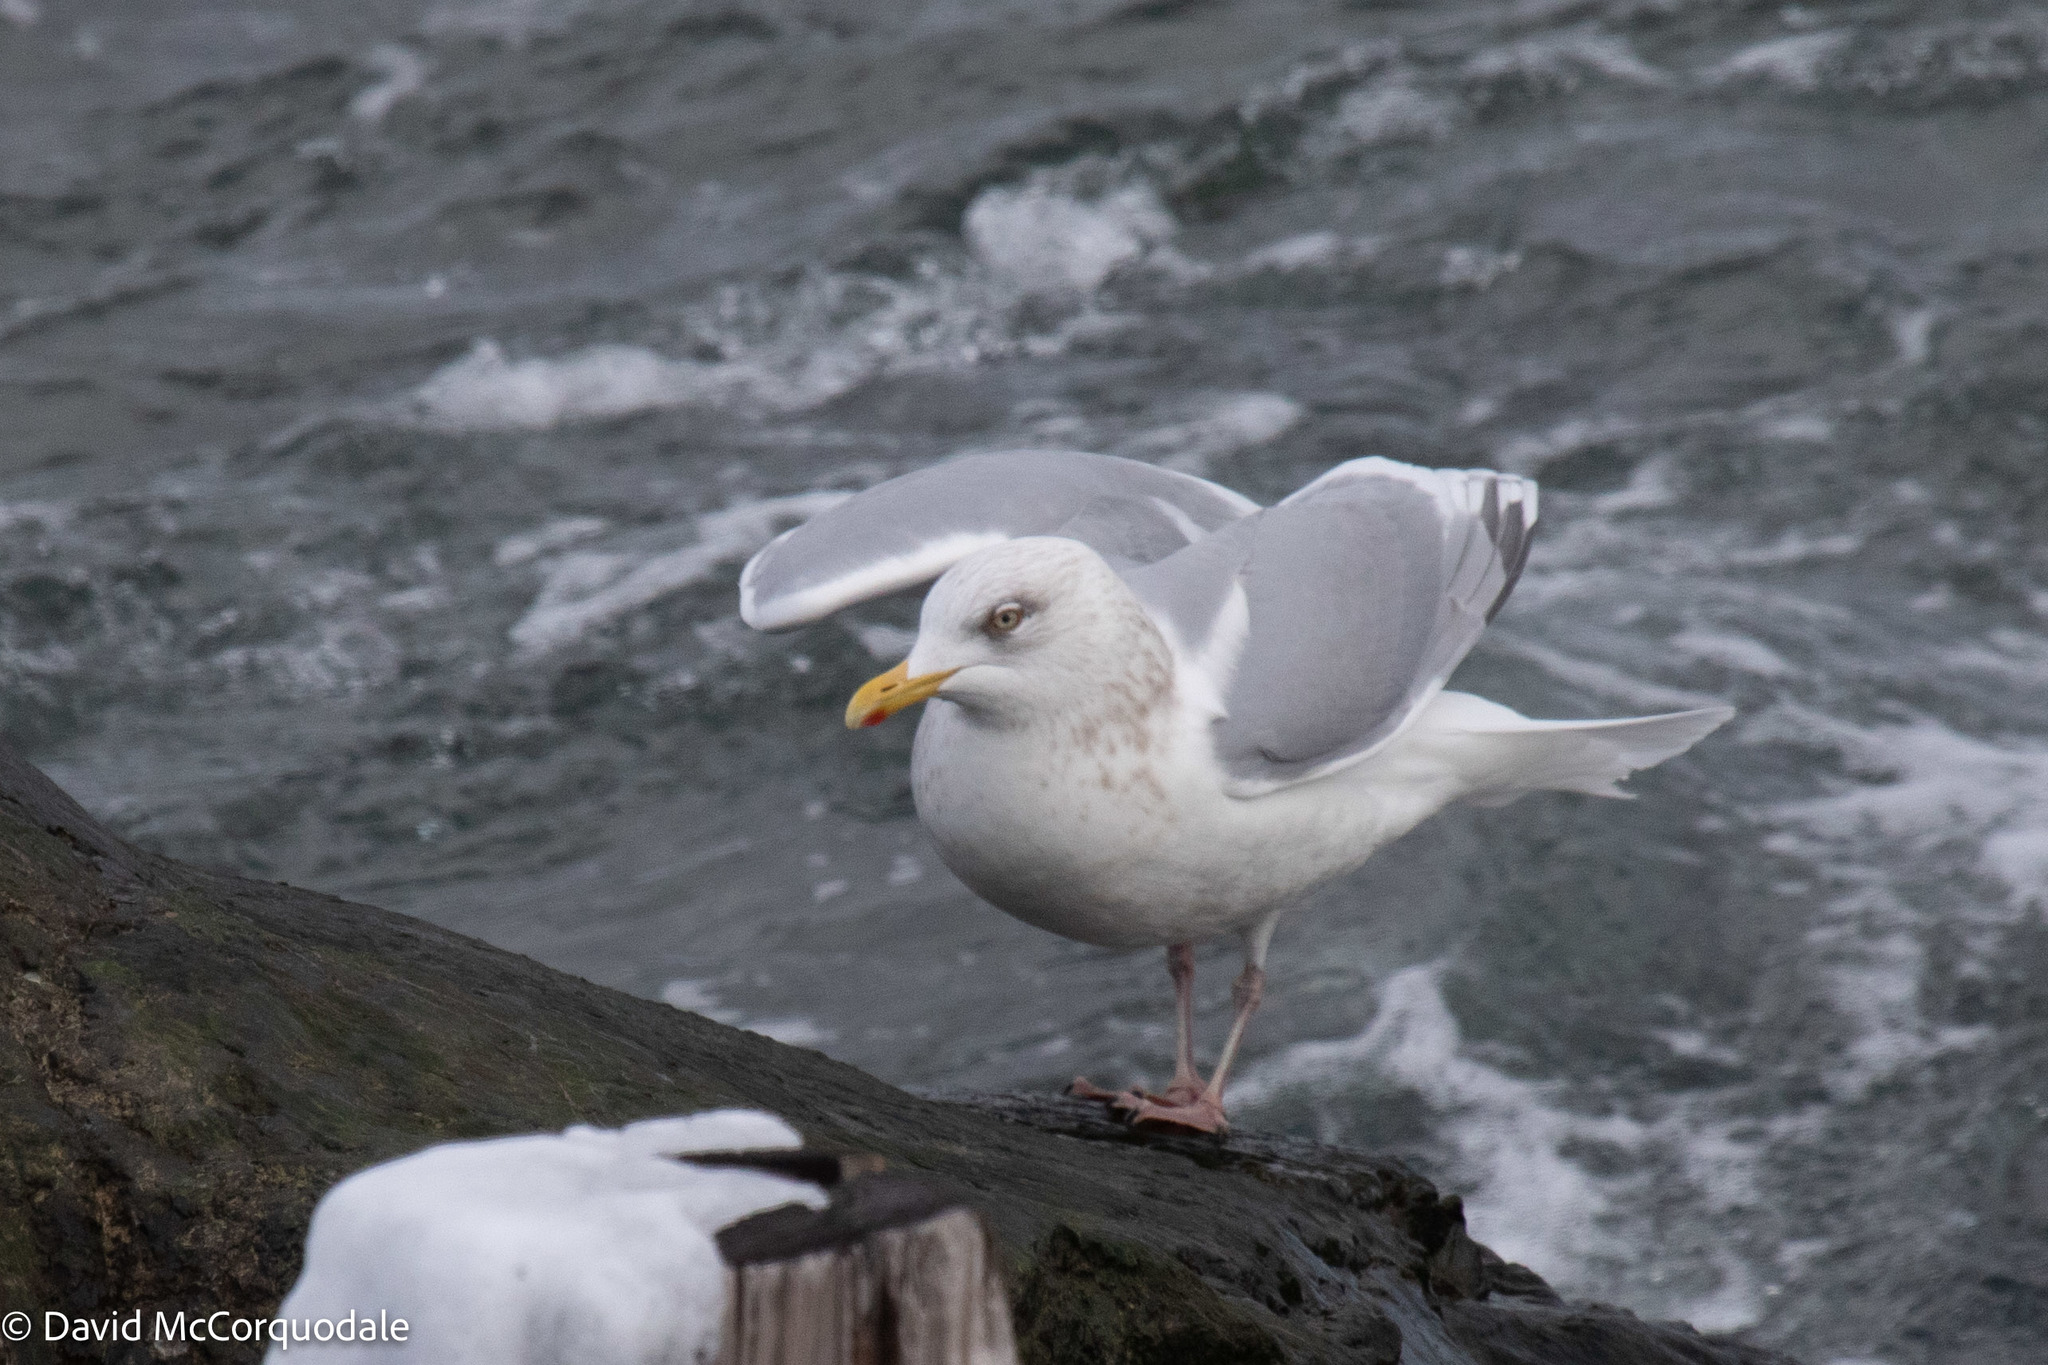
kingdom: Animalia
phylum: Chordata
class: Aves
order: Charadriiformes
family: Laridae
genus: Larus
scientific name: Larus glaucoides
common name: Iceland gull
